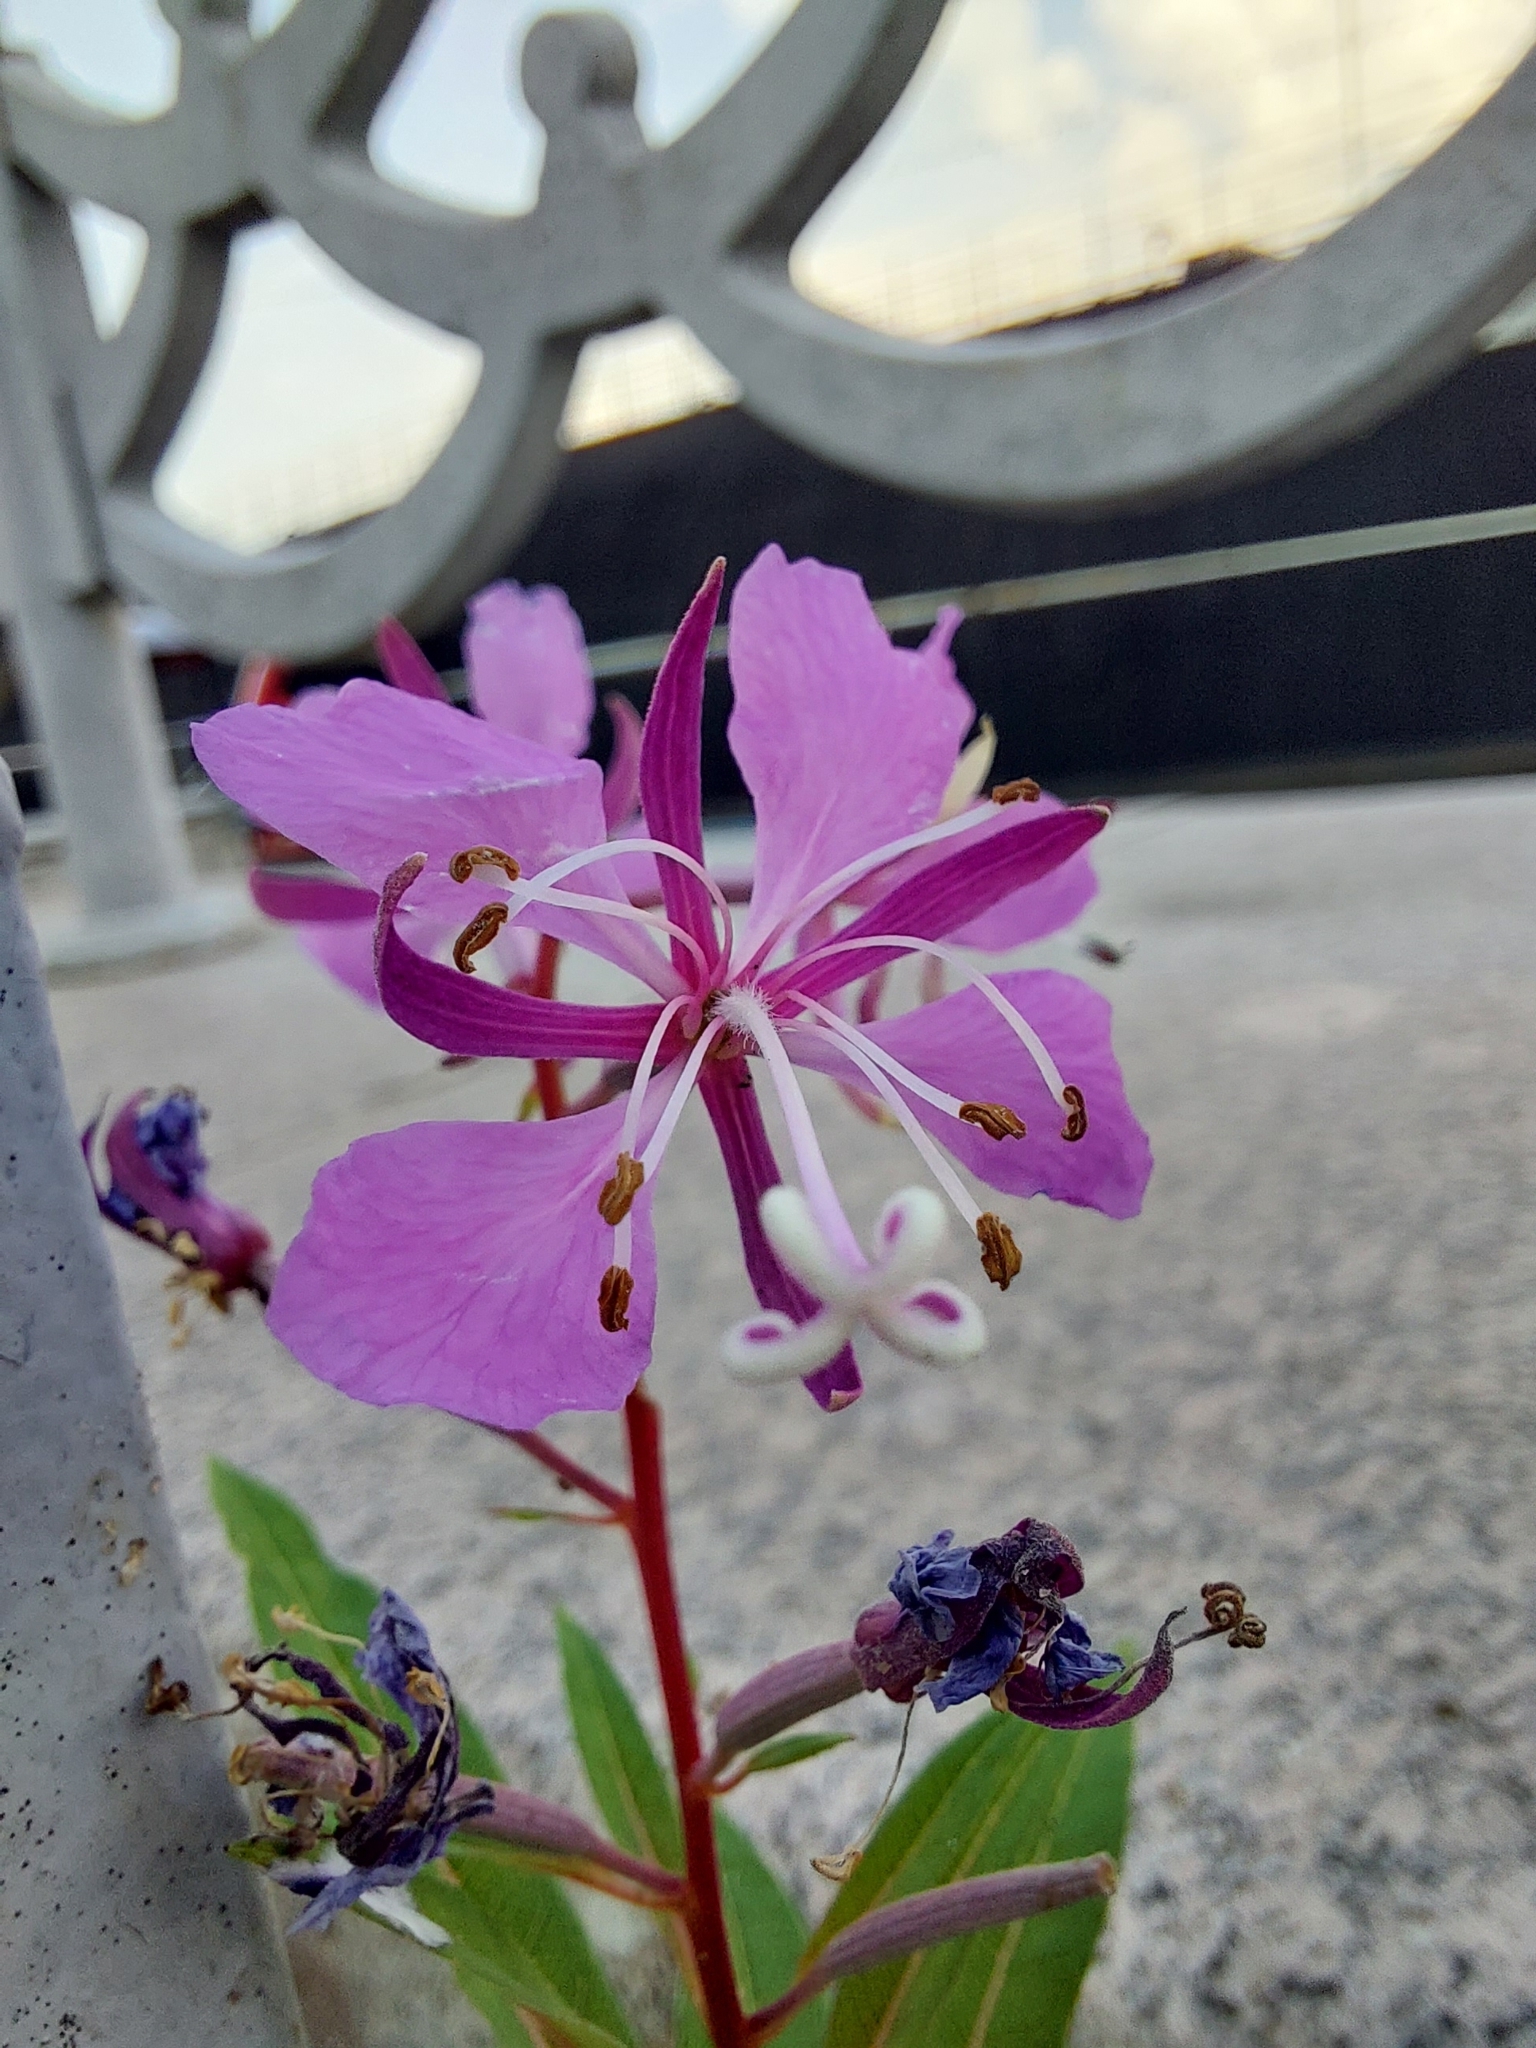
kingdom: Plantae
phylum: Tracheophyta
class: Magnoliopsida
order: Myrtales
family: Onagraceae
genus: Chamaenerion
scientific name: Chamaenerion angustifolium
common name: Fireweed
